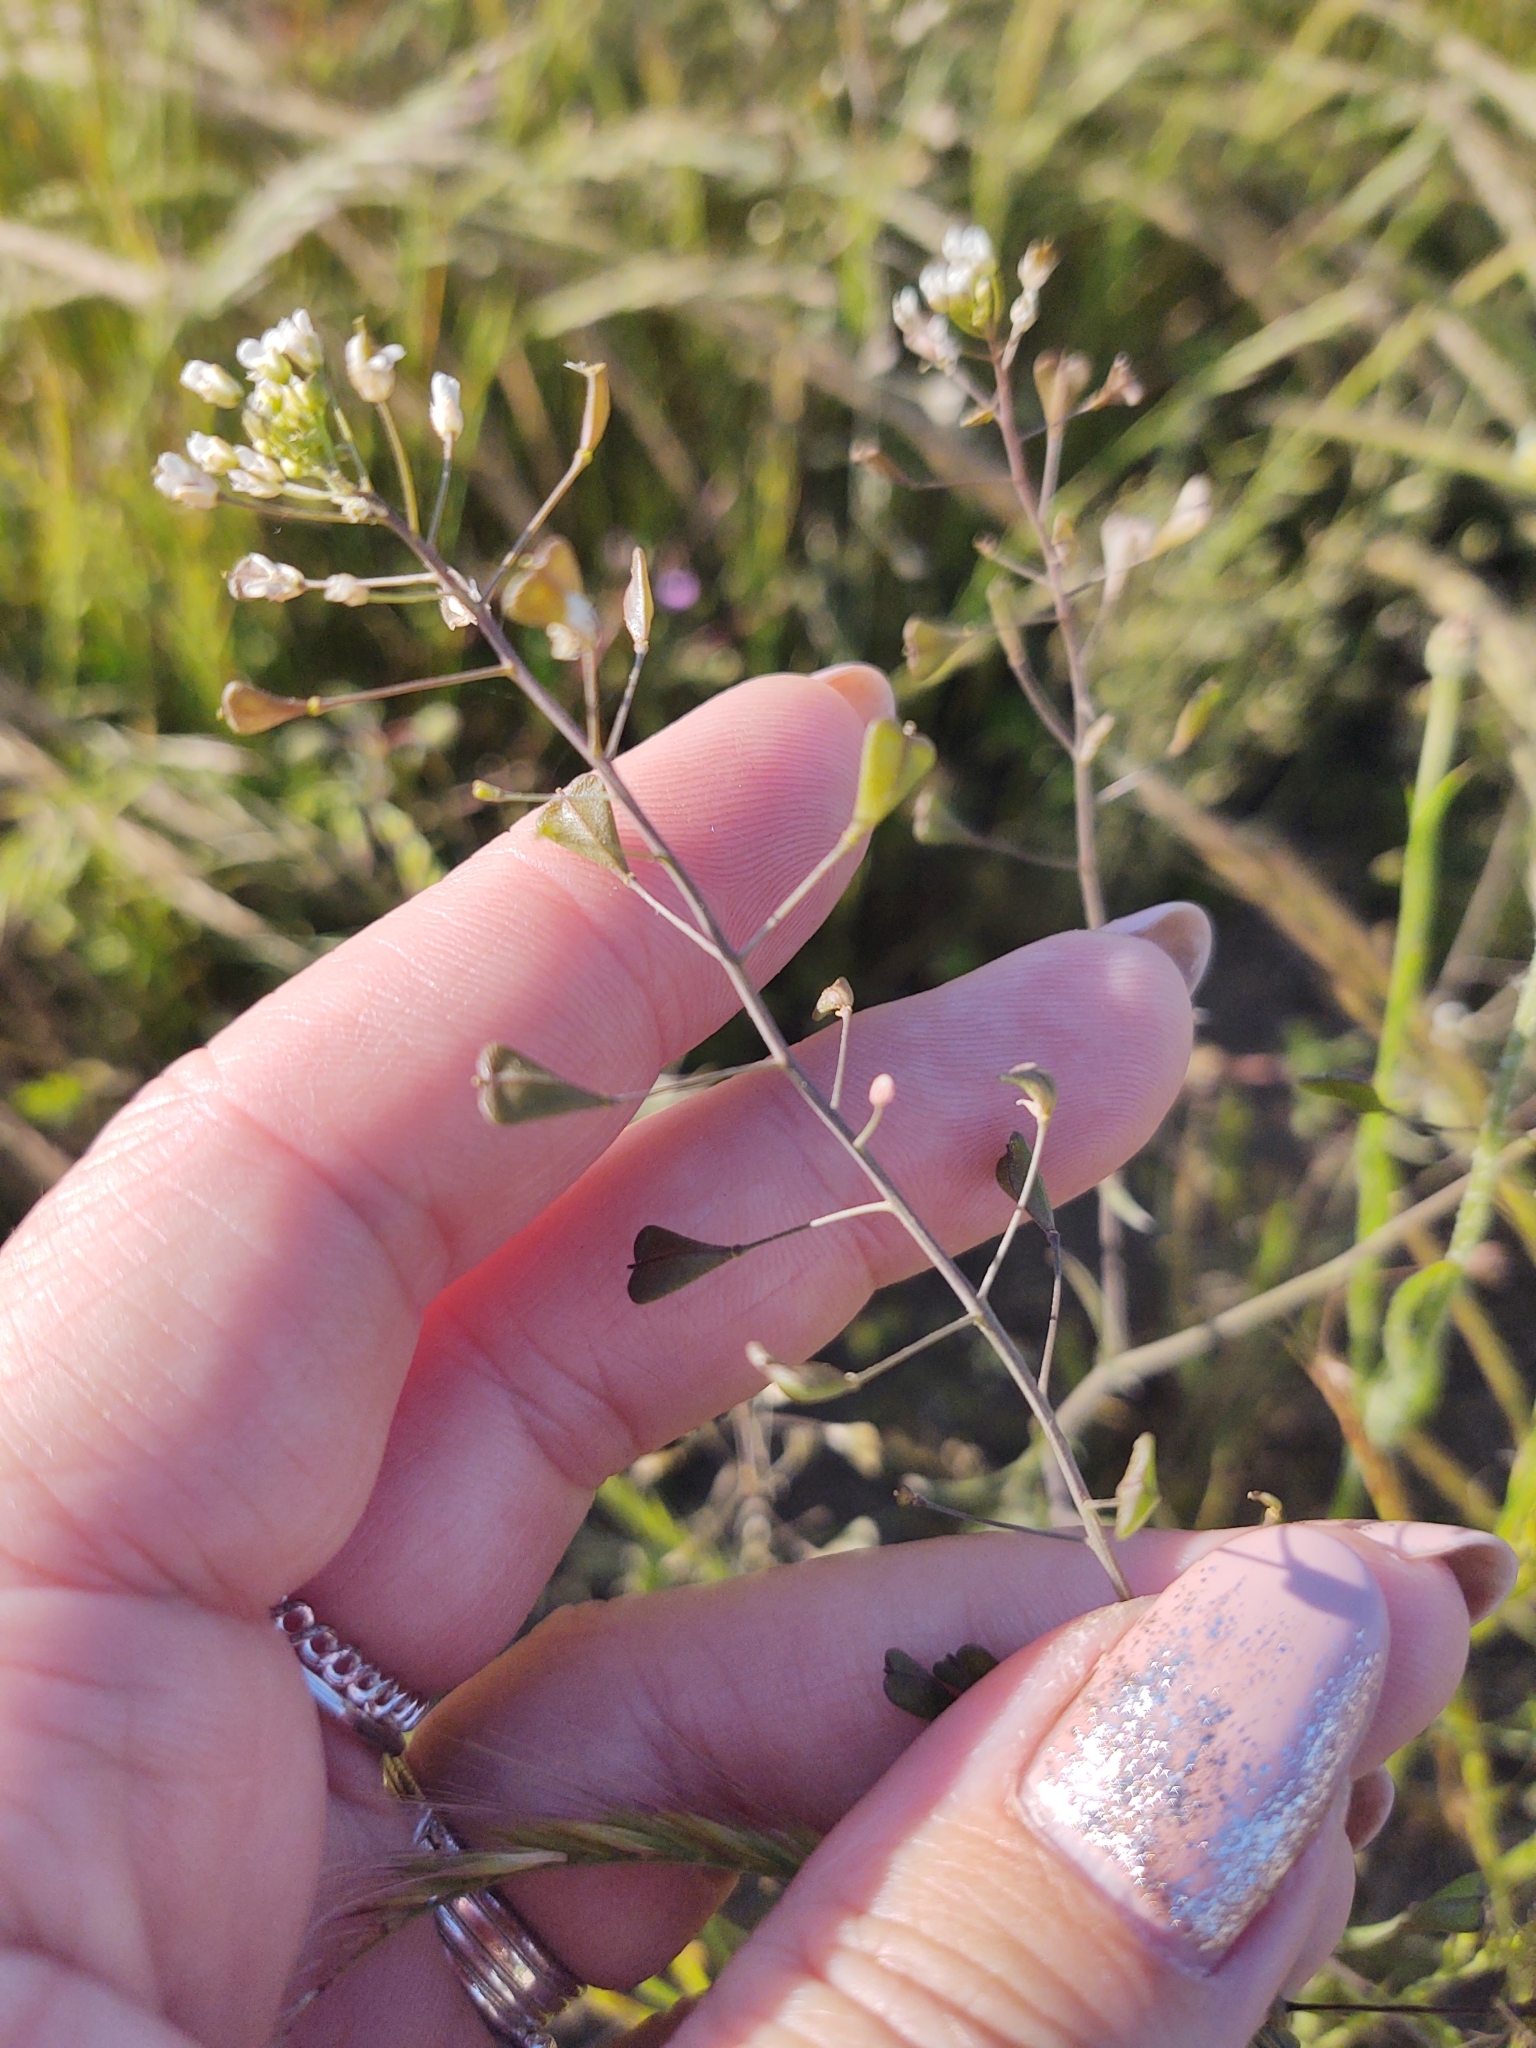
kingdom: Plantae
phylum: Tracheophyta
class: Magnoliopsida
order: Brassicales
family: Brassicaceae
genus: Capsella
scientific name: Capsella bursa-pastoris
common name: Shepherd's purse
